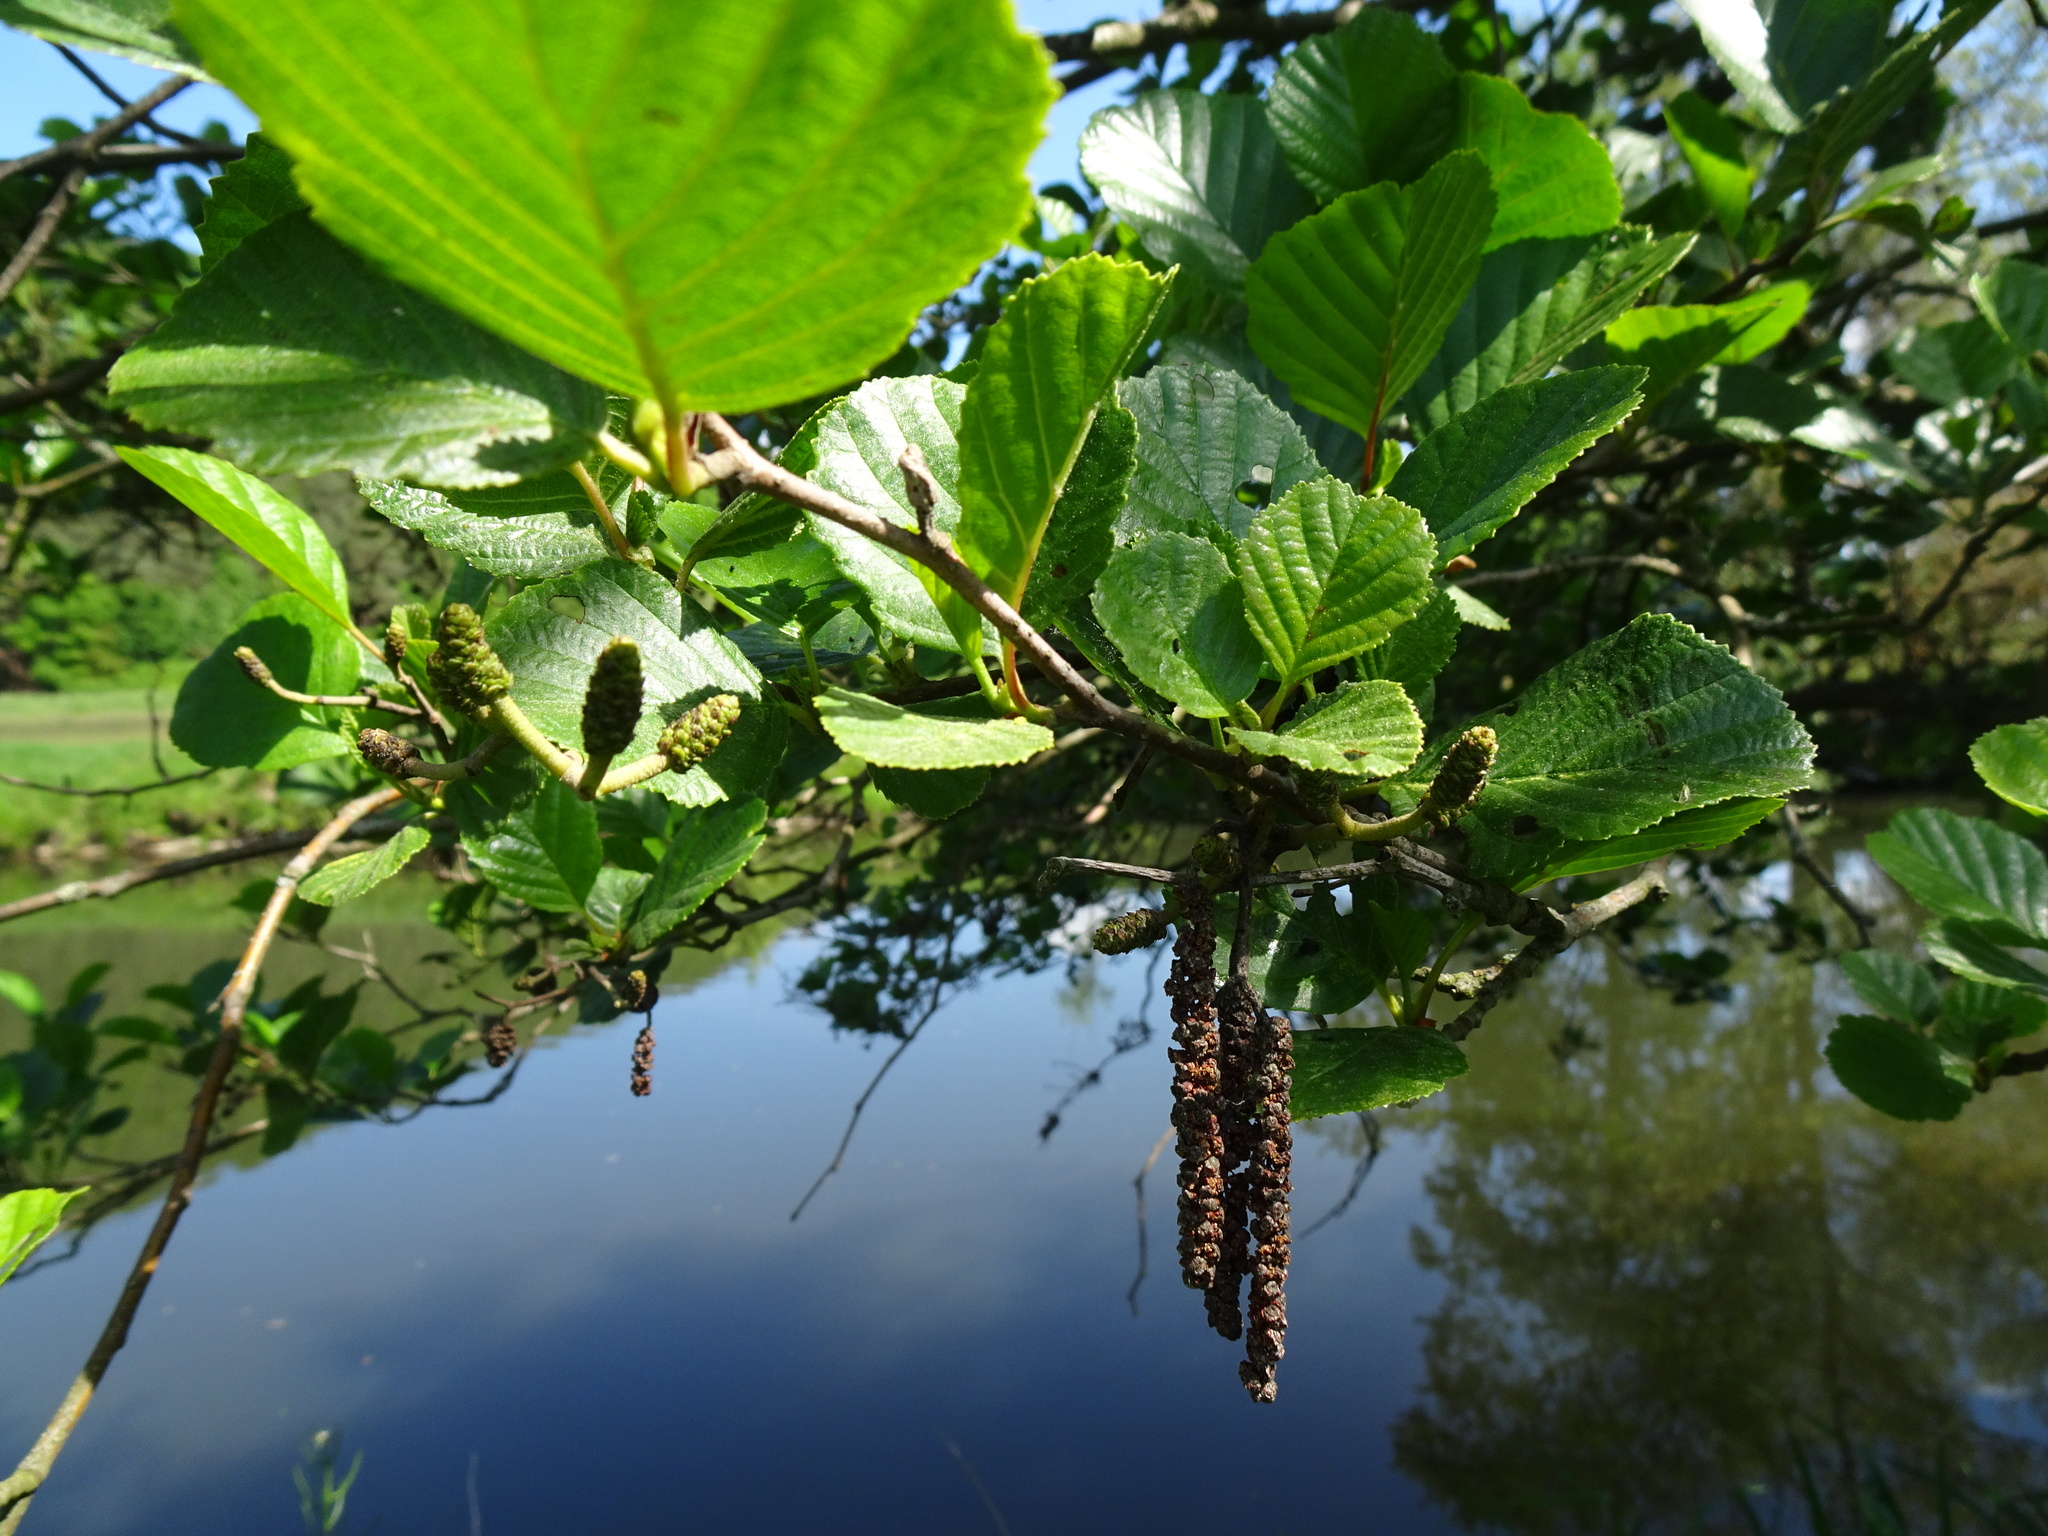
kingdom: Plantae
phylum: Tracheophyta
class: Magnoliopsida
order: Fagales
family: Betulaceae
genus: Alnus
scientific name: Alnus glutinosa
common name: Black alder
